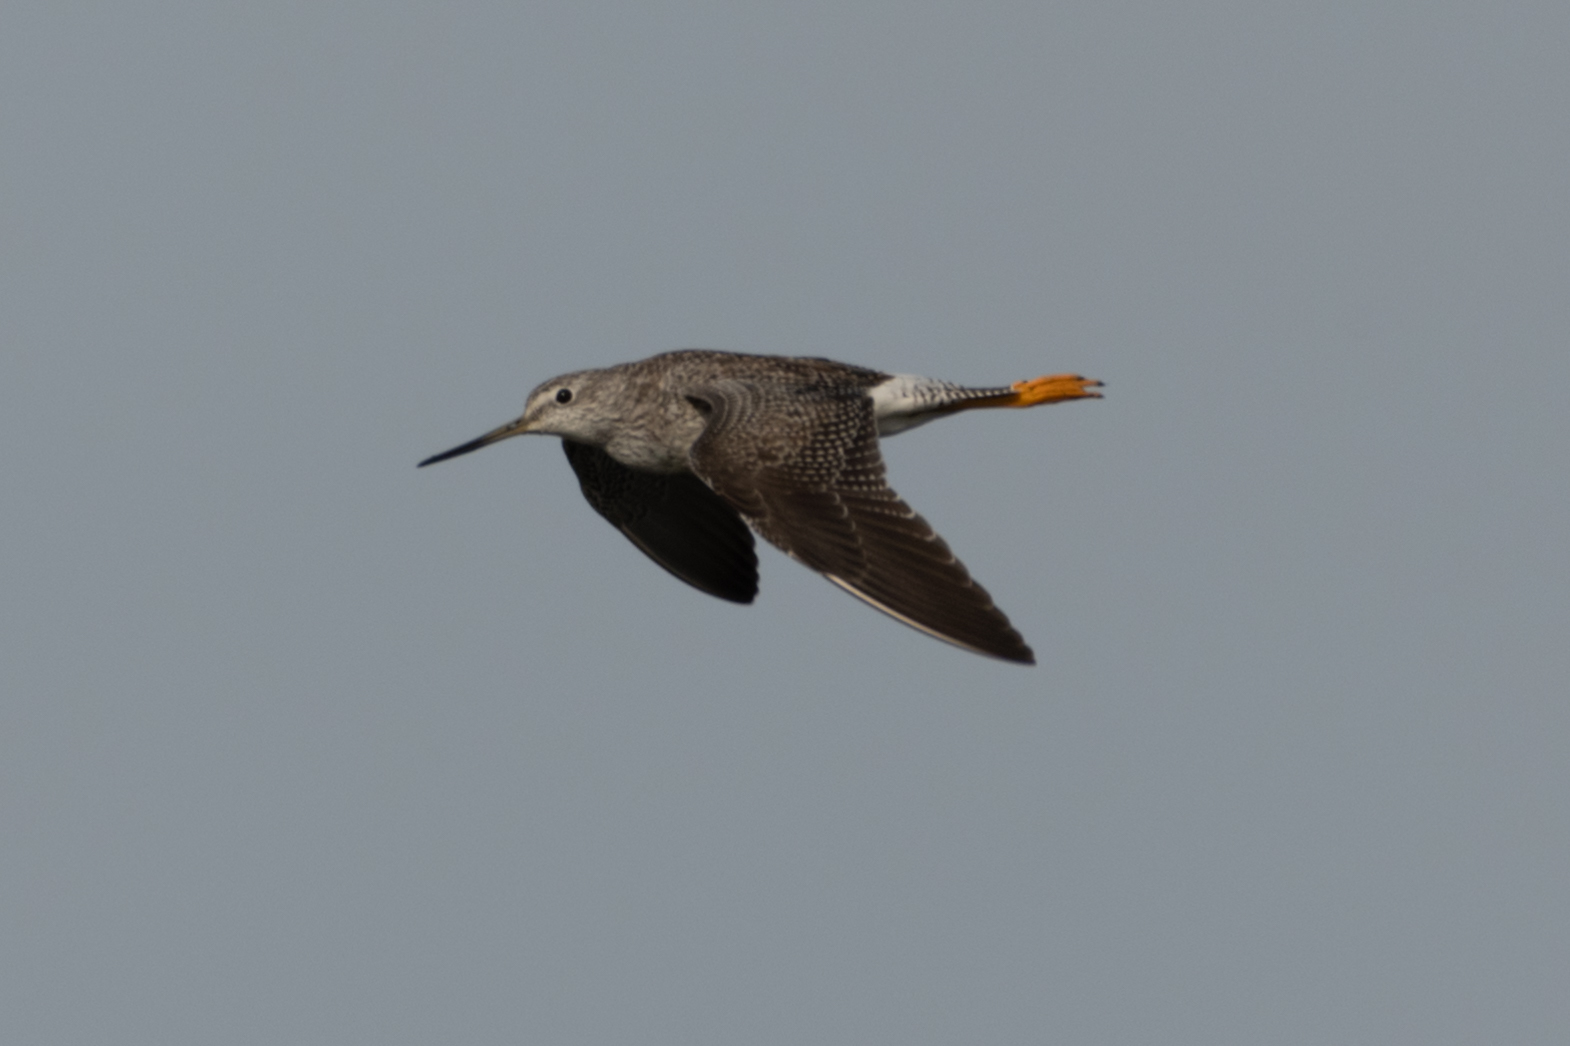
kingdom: Animalia
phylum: Chordata
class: Aves
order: Charadriiformes
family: Scolopacidae
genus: Tringa
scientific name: Tringa melanoleuca
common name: Greater yellowlegs
